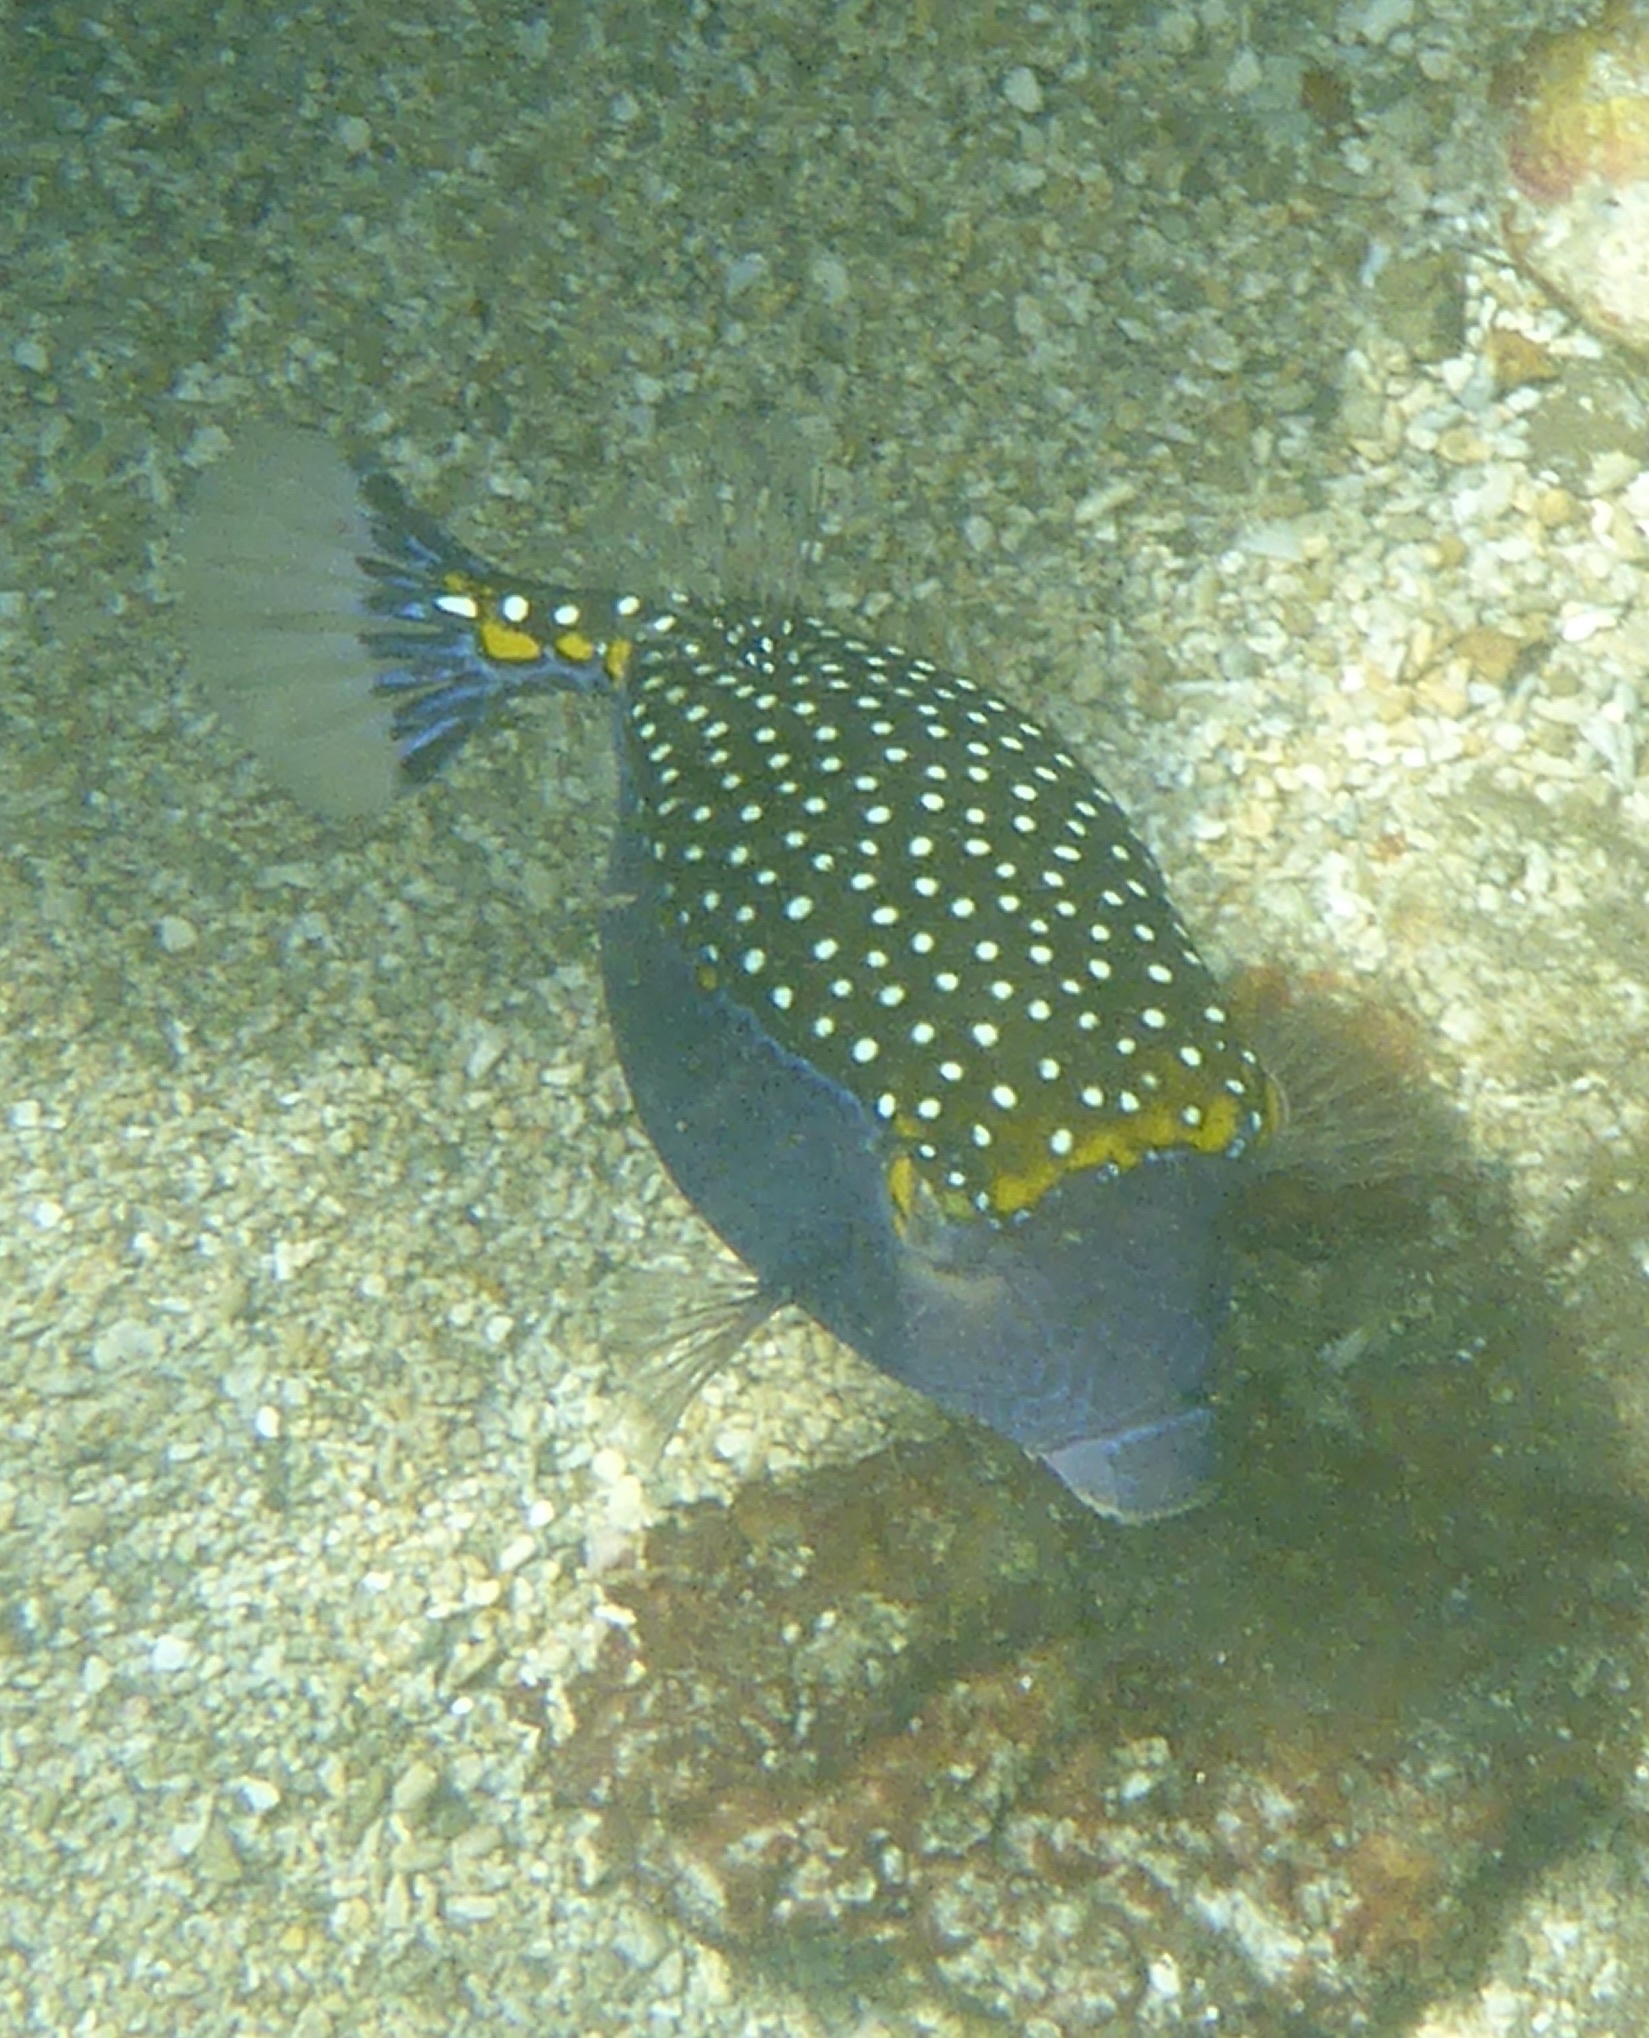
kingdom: Animalia
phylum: Chordata
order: Tetraodontiformes
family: Ostraciidae
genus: Ostracion
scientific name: Ostracion meleagris
